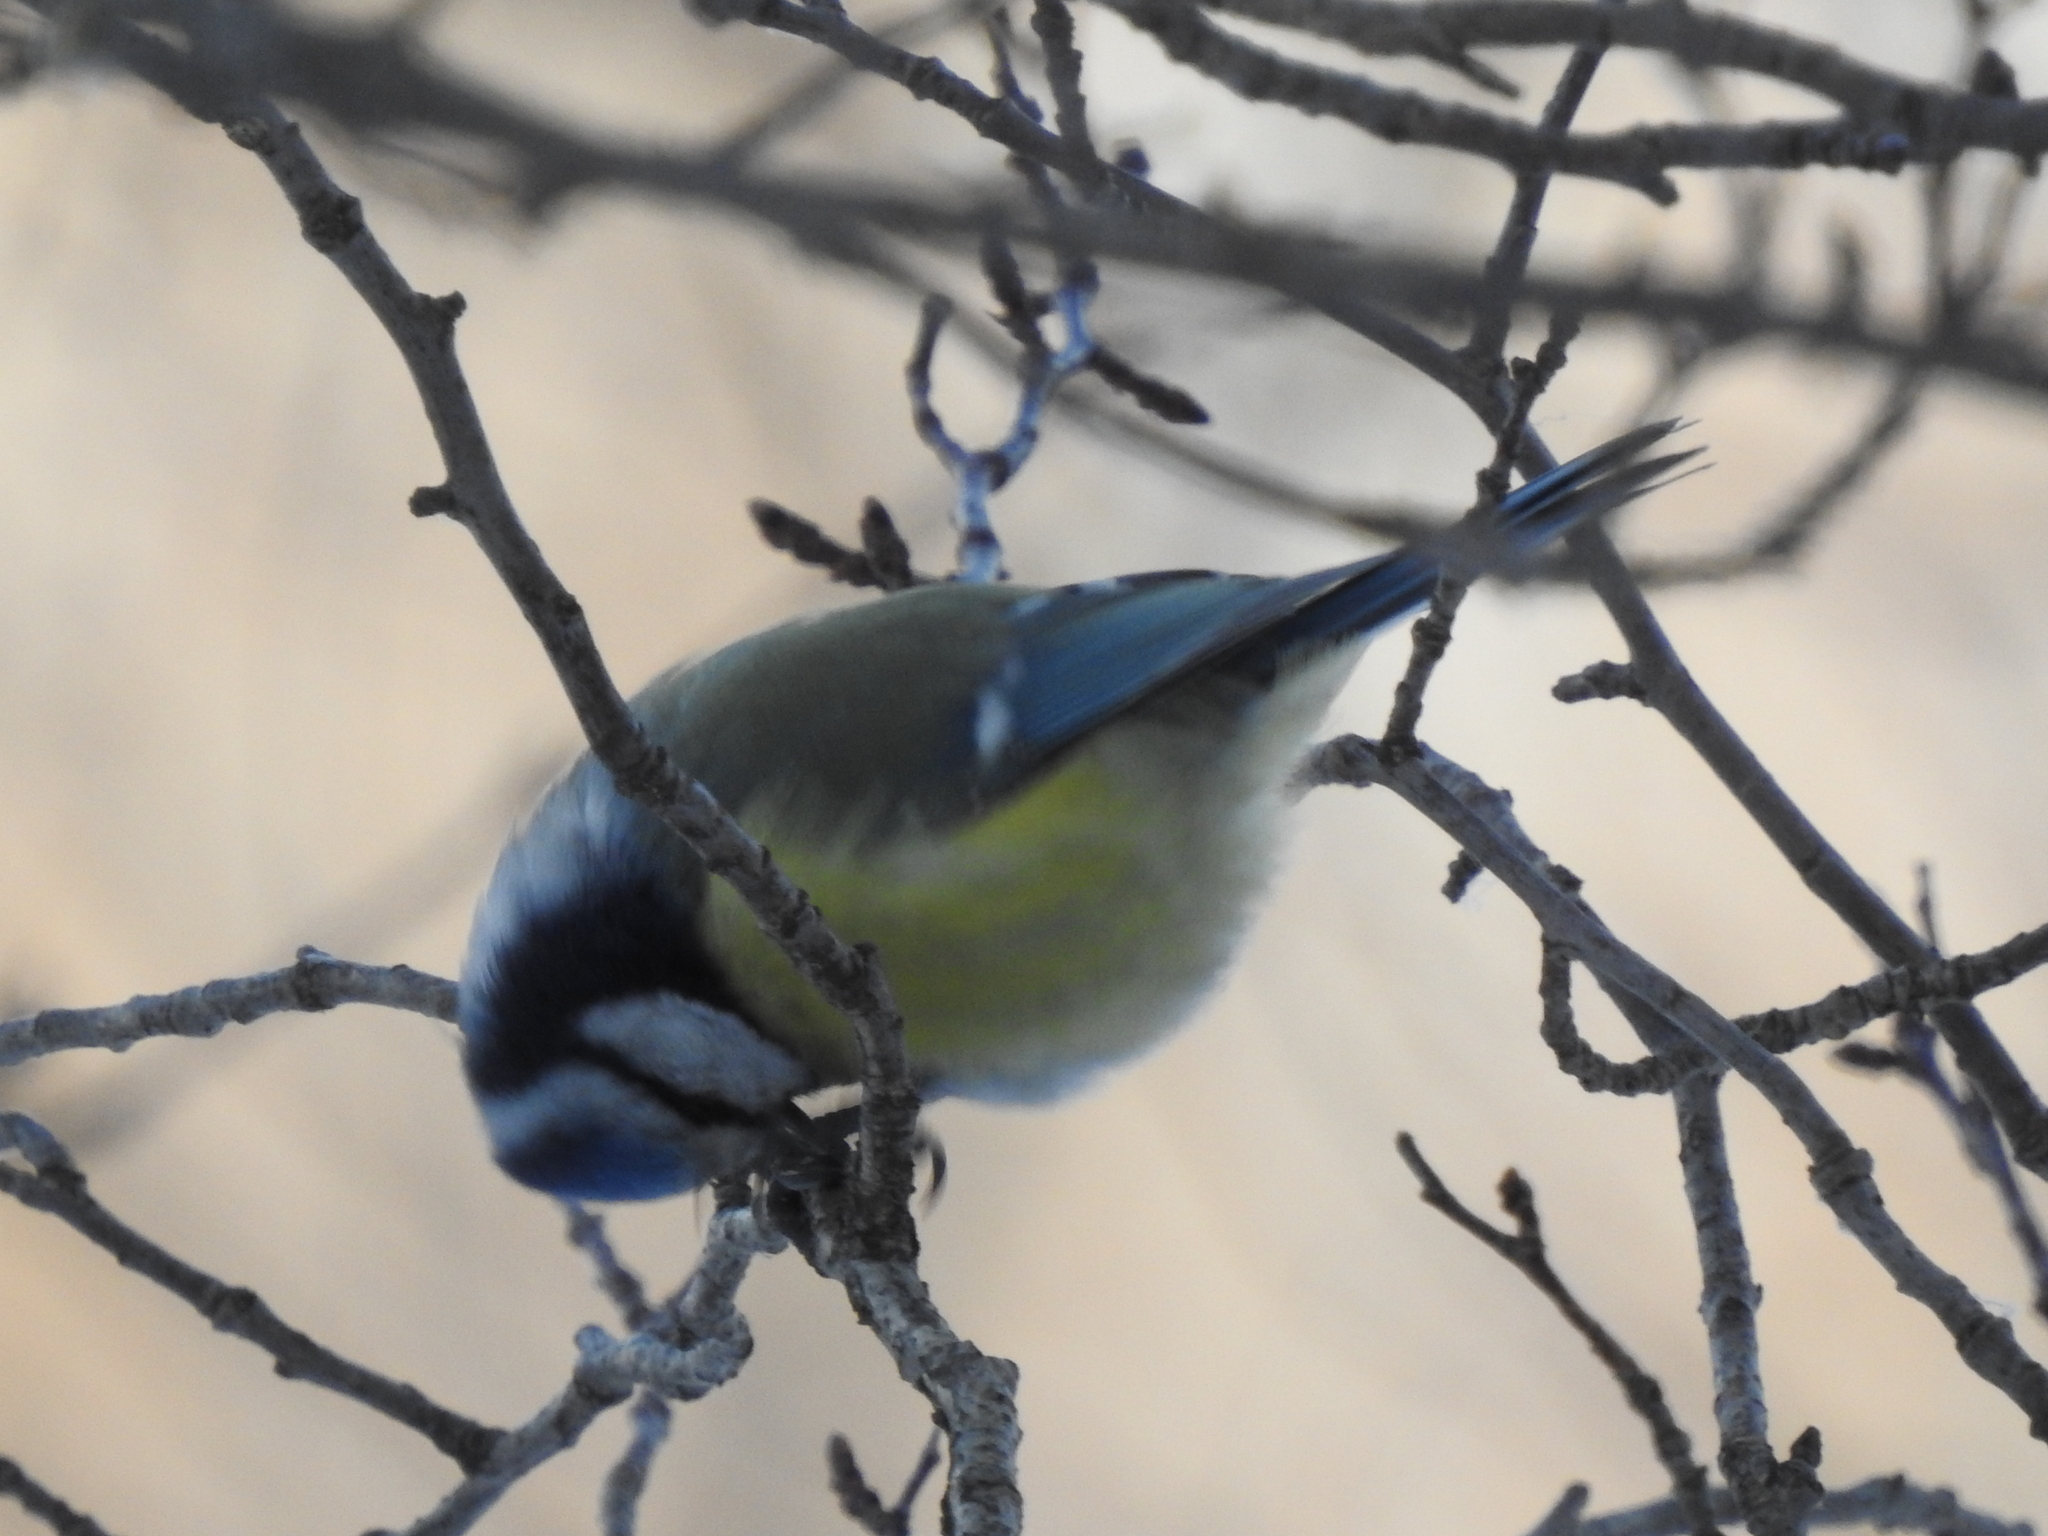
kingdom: Animalia
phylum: Chordata
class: Aves
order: Passeriformes
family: Paridae
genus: Cyanistes
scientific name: Cyanistes caeruleus
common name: Eurasian blue tit
